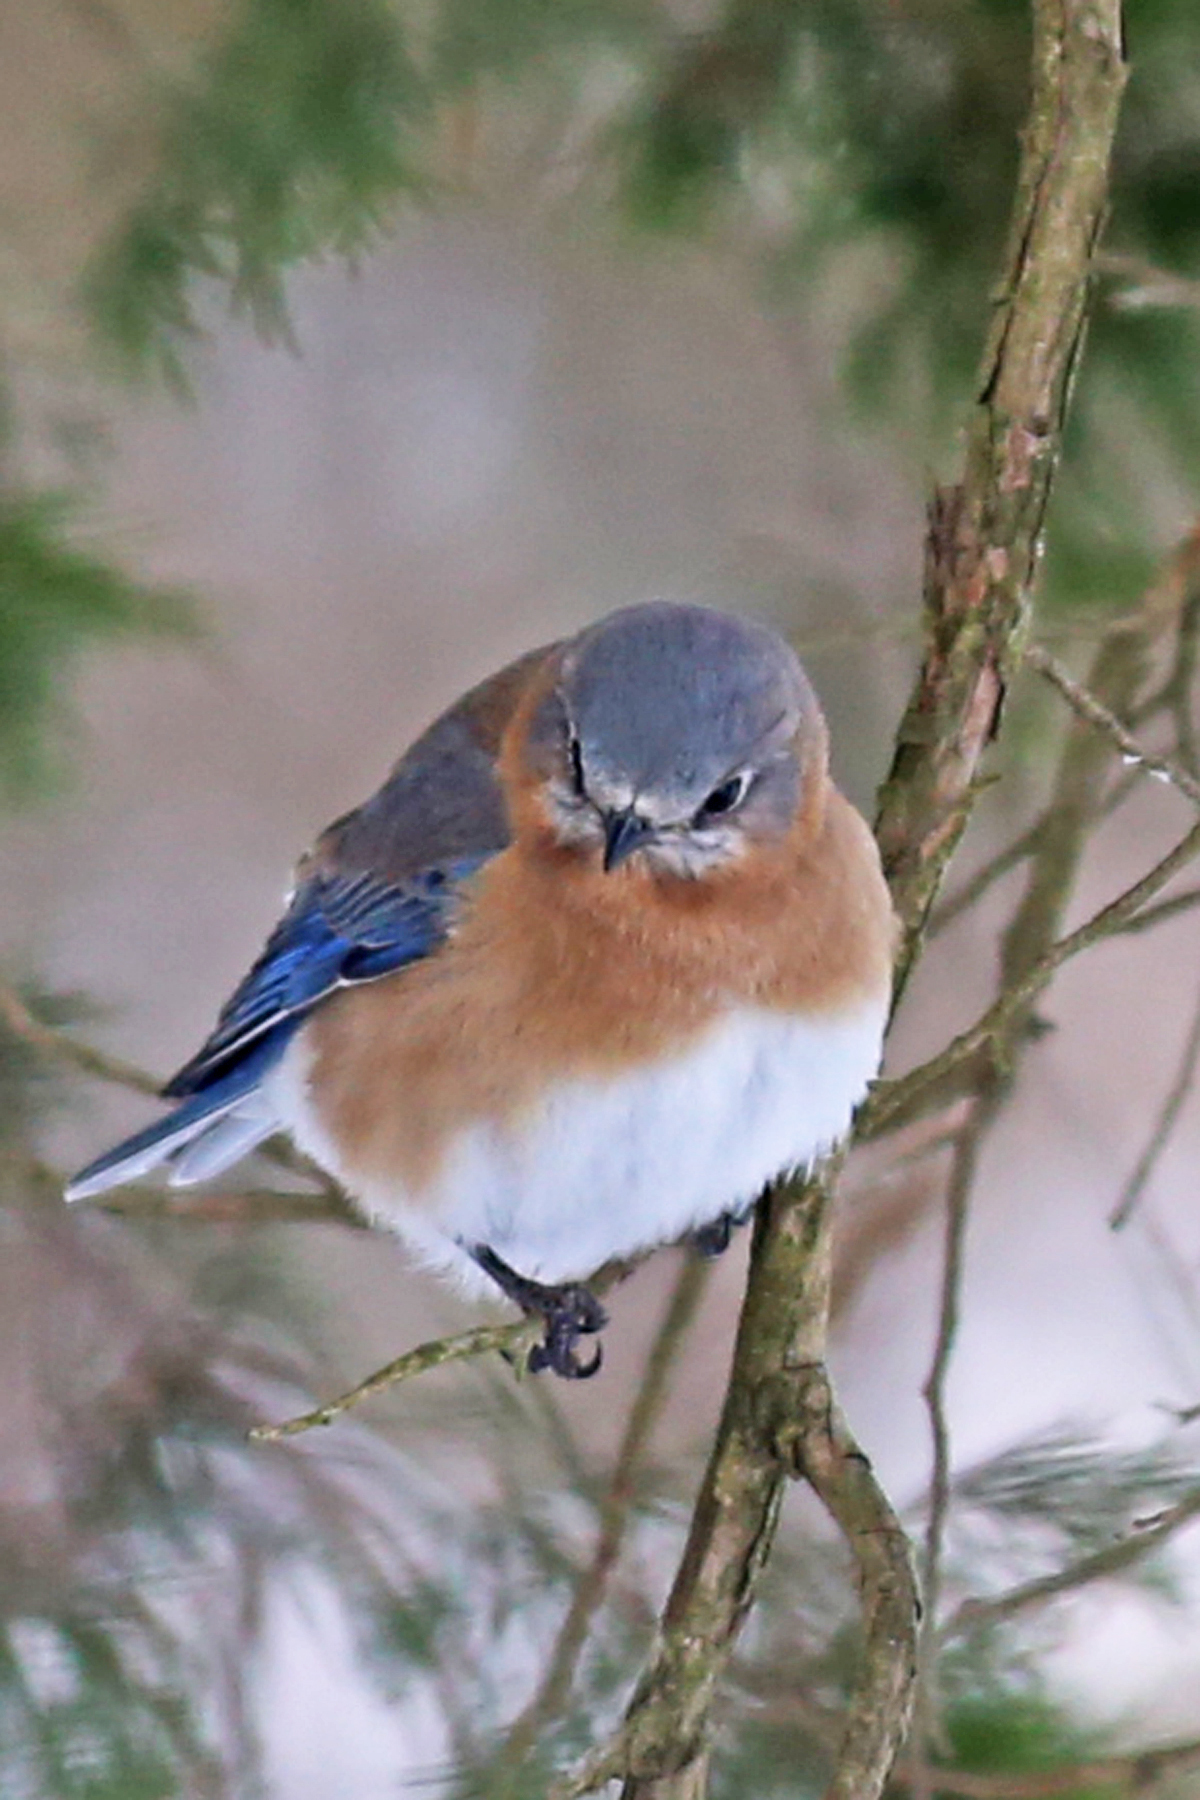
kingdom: Animalia
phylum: Chordata
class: Aves
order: Passeriformes
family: Turdidae
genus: Sialia
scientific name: Sialia sialis
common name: Eastern bluebird
